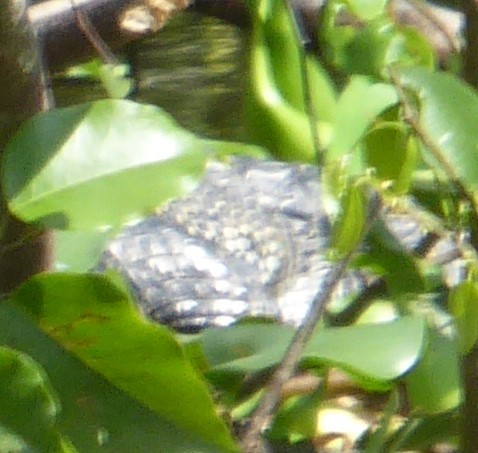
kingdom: Animalia
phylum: Chordata
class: Crocodylia
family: Crocodylidae
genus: Crocodylus
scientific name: Crocodylus moreletii
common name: Morelet's crocodile
